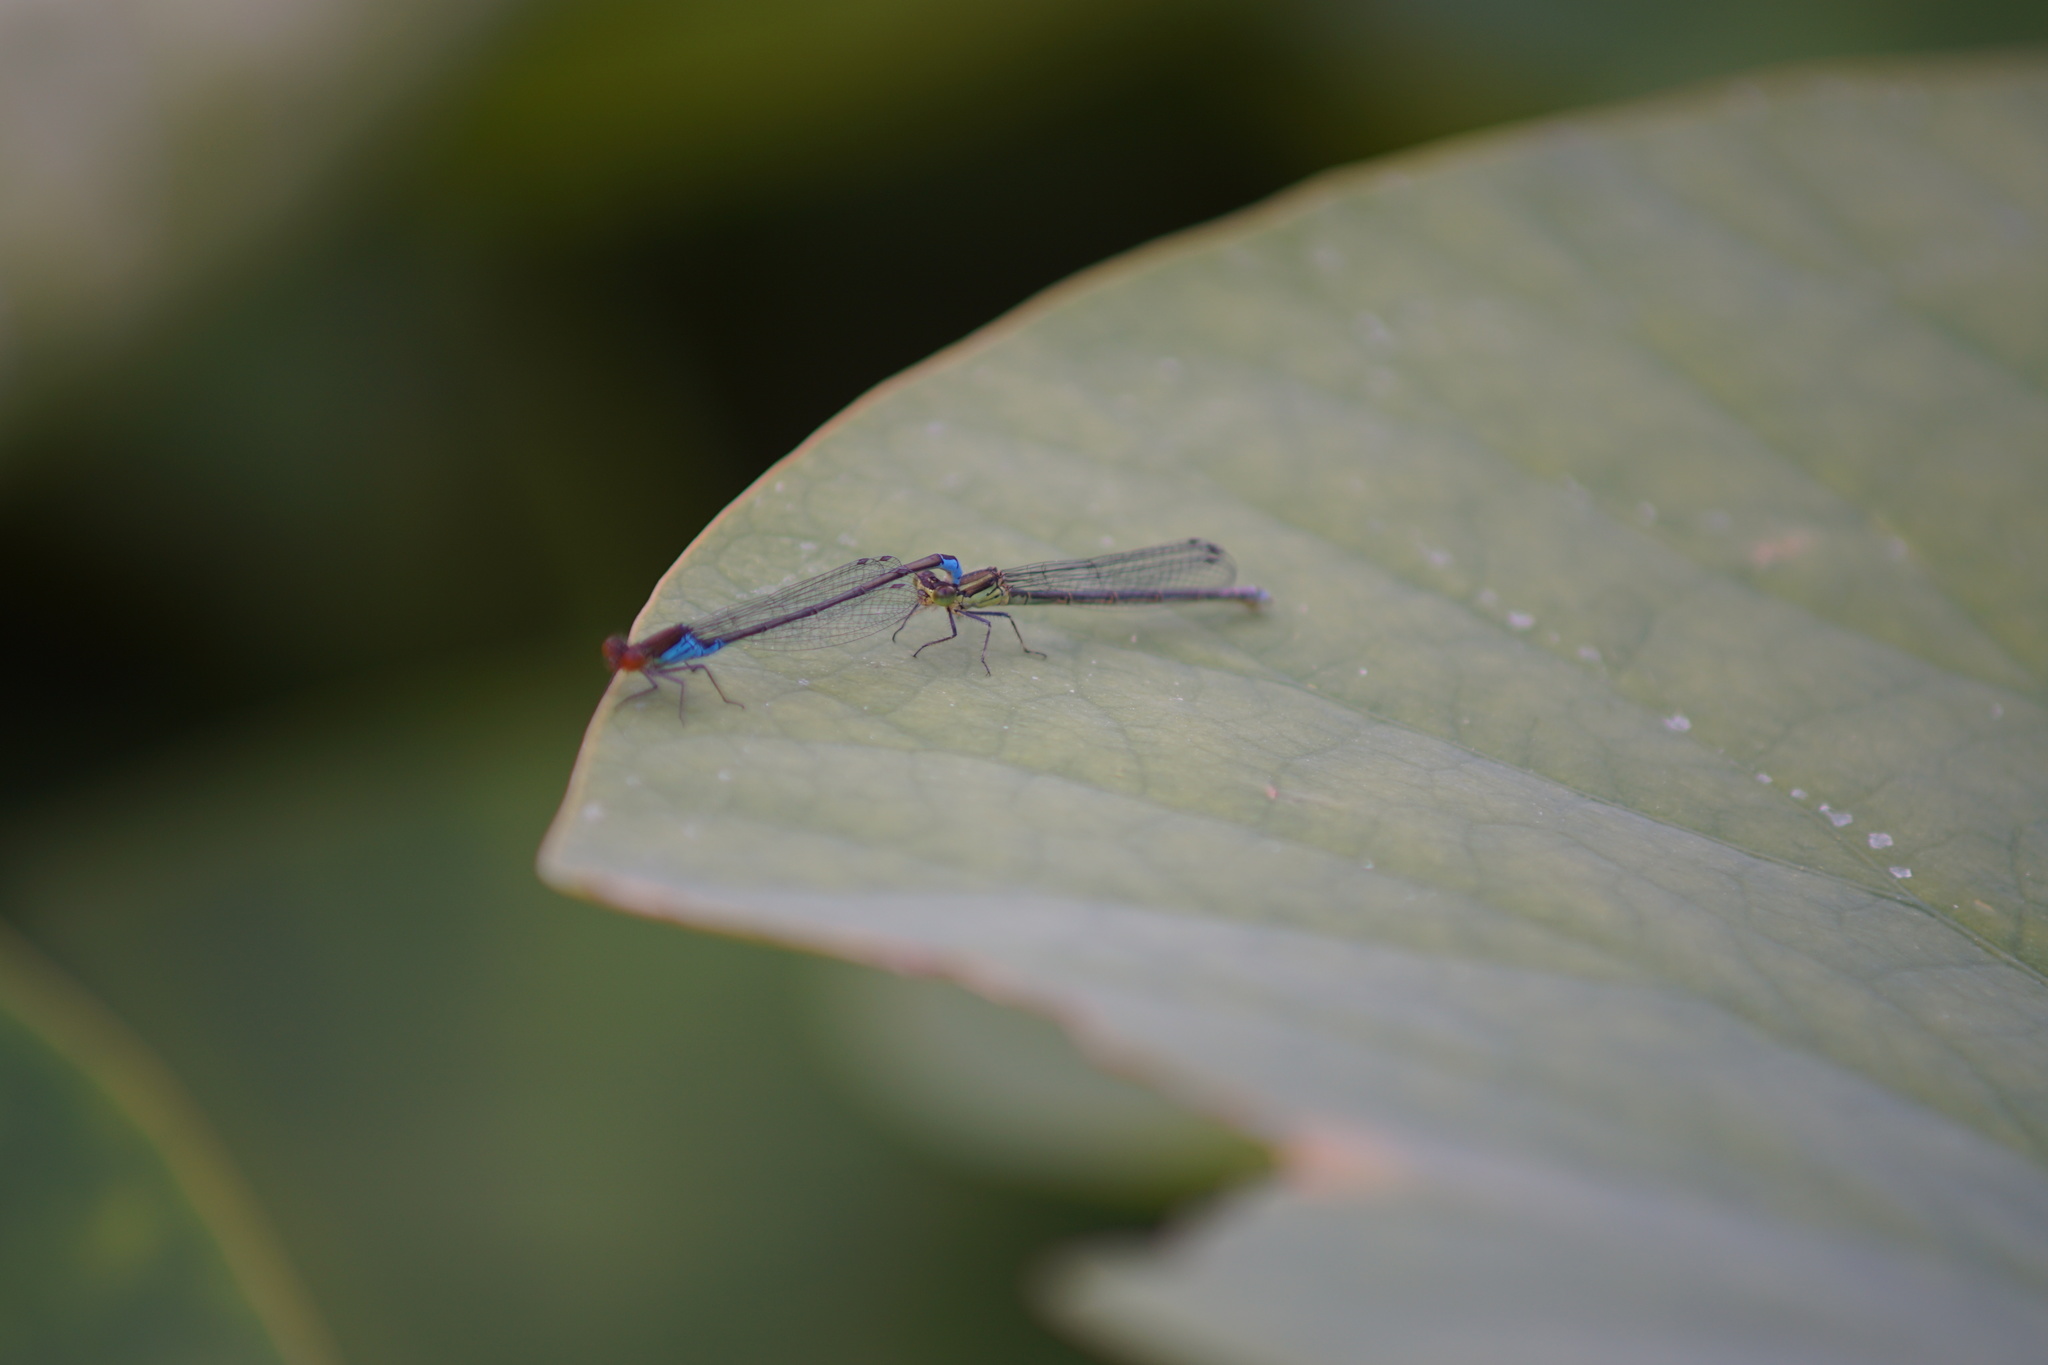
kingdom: Animalia
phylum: Arthropoda
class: Insecta
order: Odonata
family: Coenagrionidae
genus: Erythromma
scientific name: Erythromma viridulum
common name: Small red-eyed damselfly
